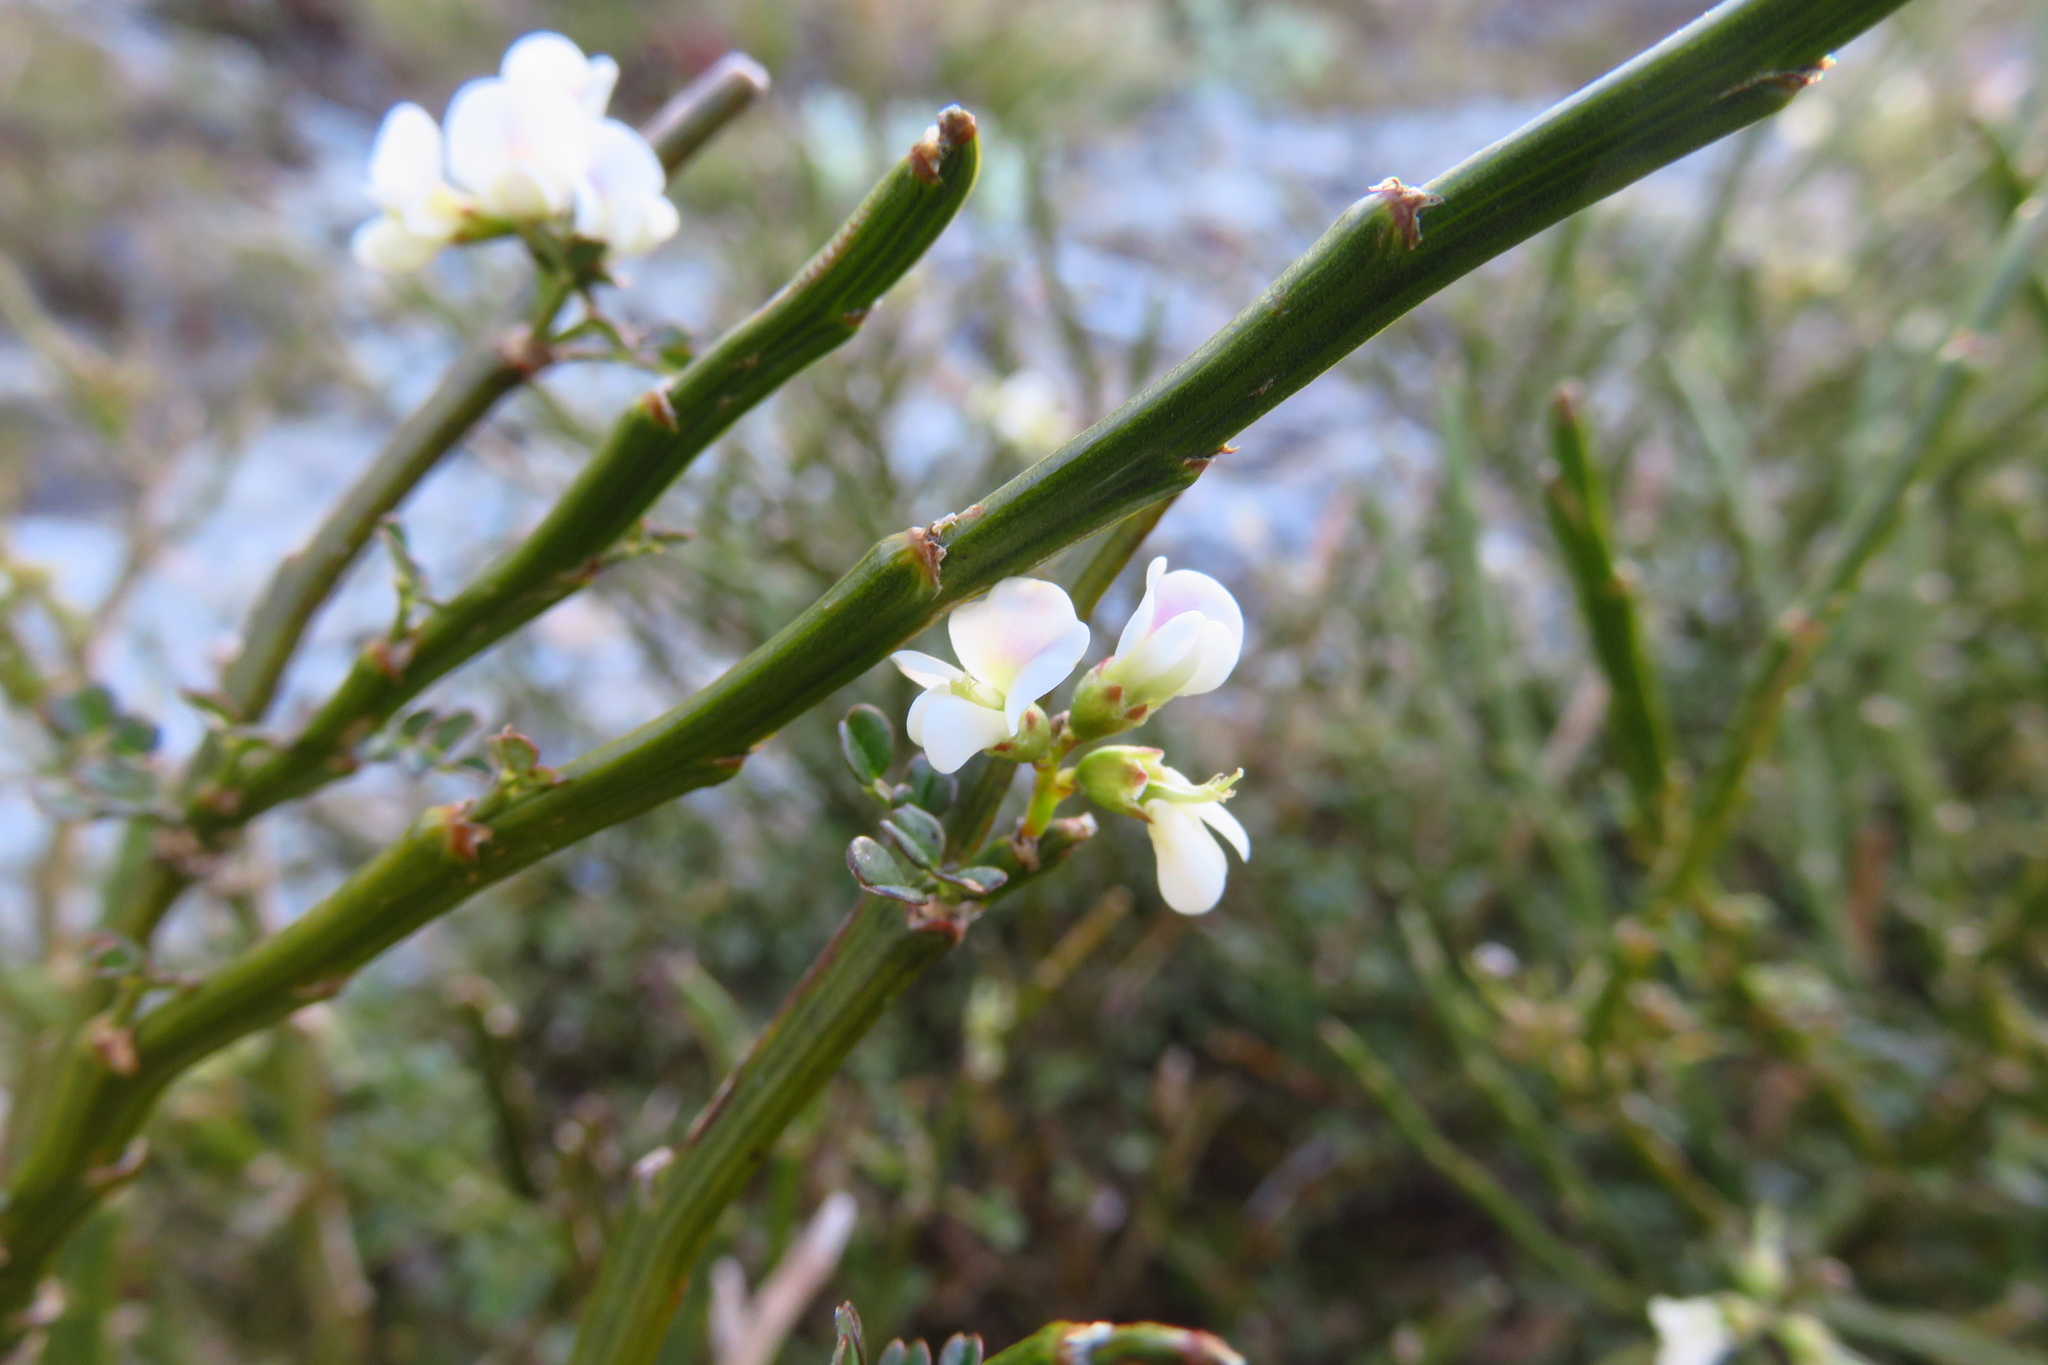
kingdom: Plantae
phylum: Tracheophyta
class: Magnoliopsida
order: Fabales
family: Fabaceae
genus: Carmichaelia
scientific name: Carmichaelia arborea
